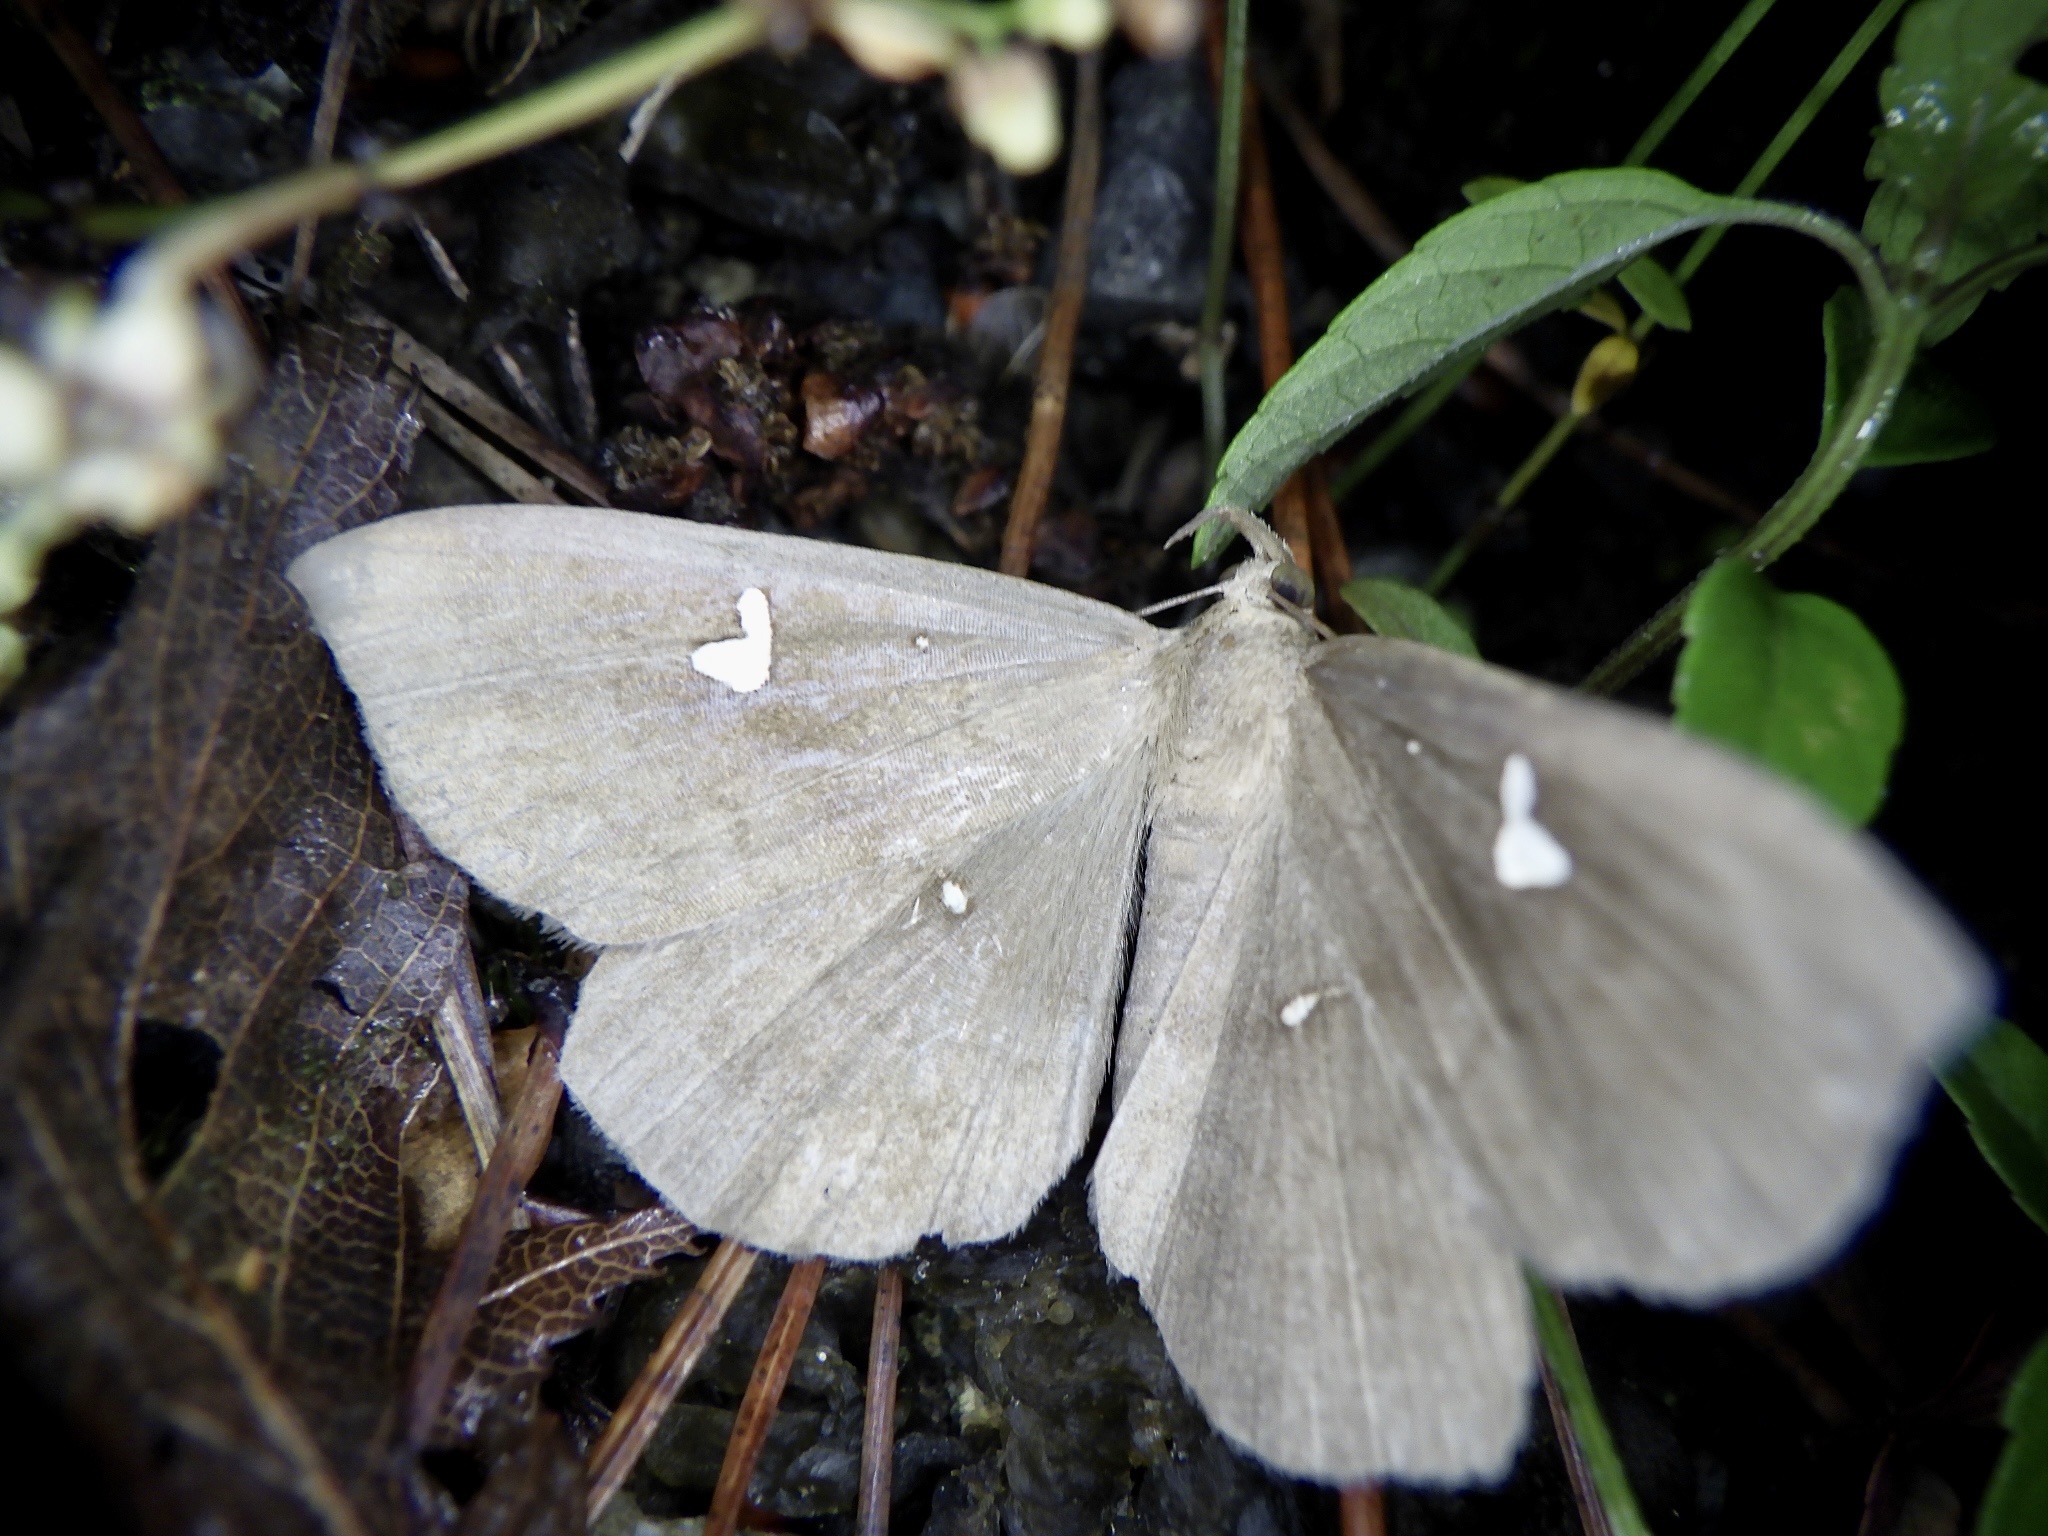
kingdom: Animalia
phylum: Arthropoda
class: Insecta
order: Lepidoptera
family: Erebidae
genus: Edessena
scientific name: Edessena hamada
